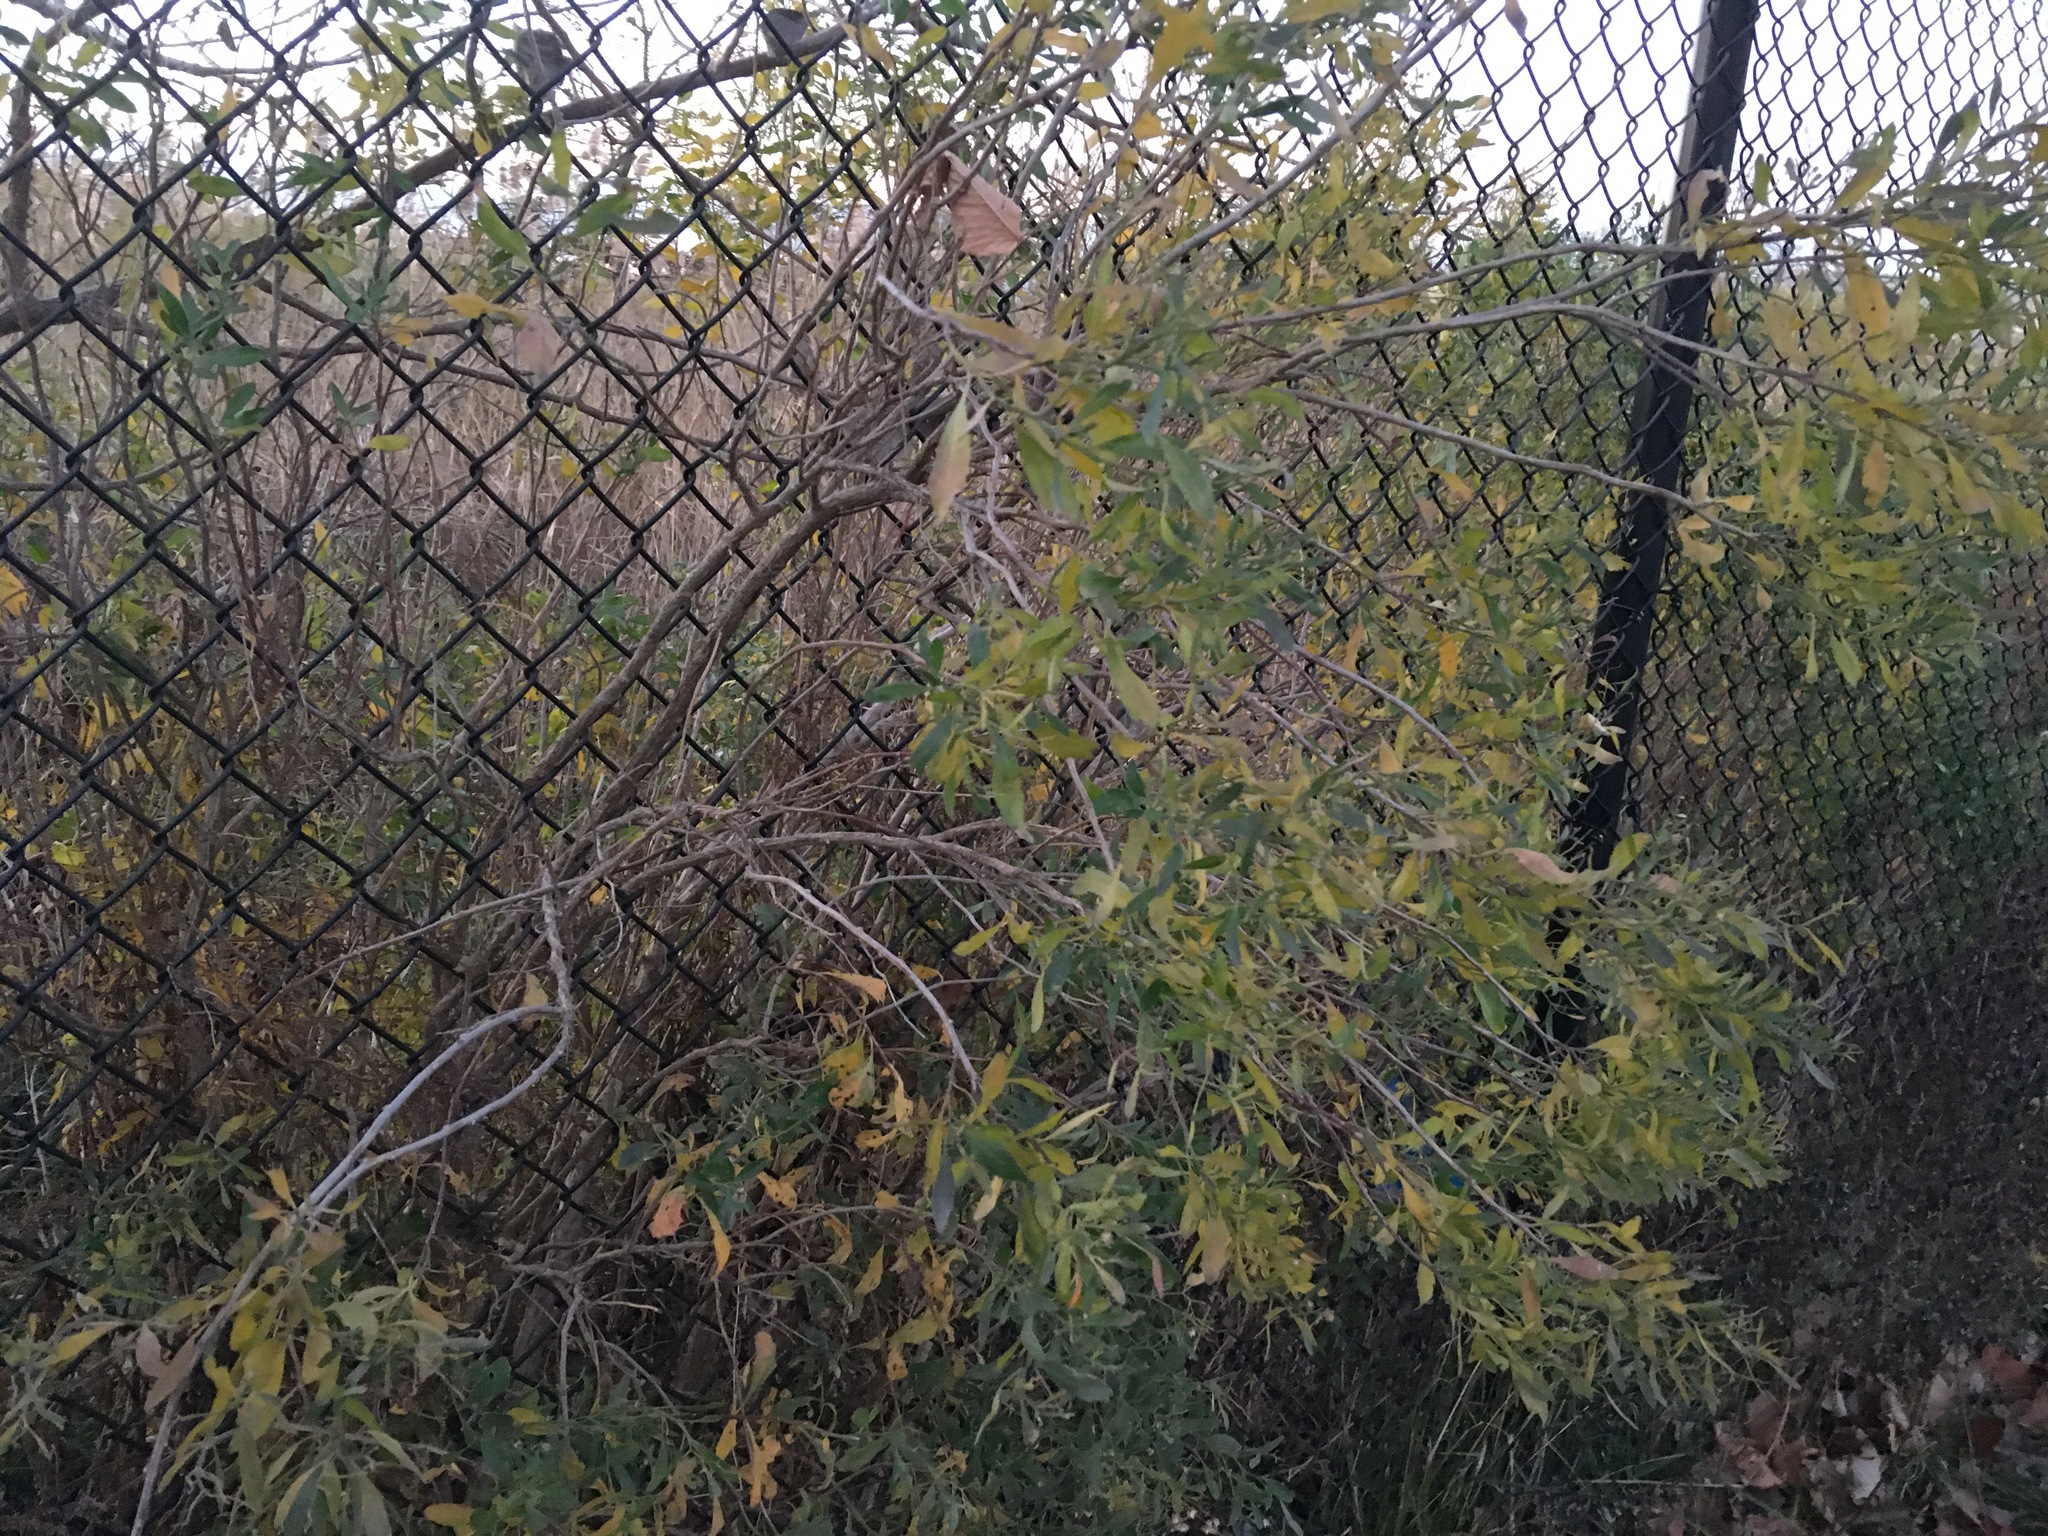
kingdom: Plantae
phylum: Tracheophyta
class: Magnoliopsida
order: Asterales
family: Asteraceae
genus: Baccharis
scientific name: Baccharis halimifolia
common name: Eastern baccharis
